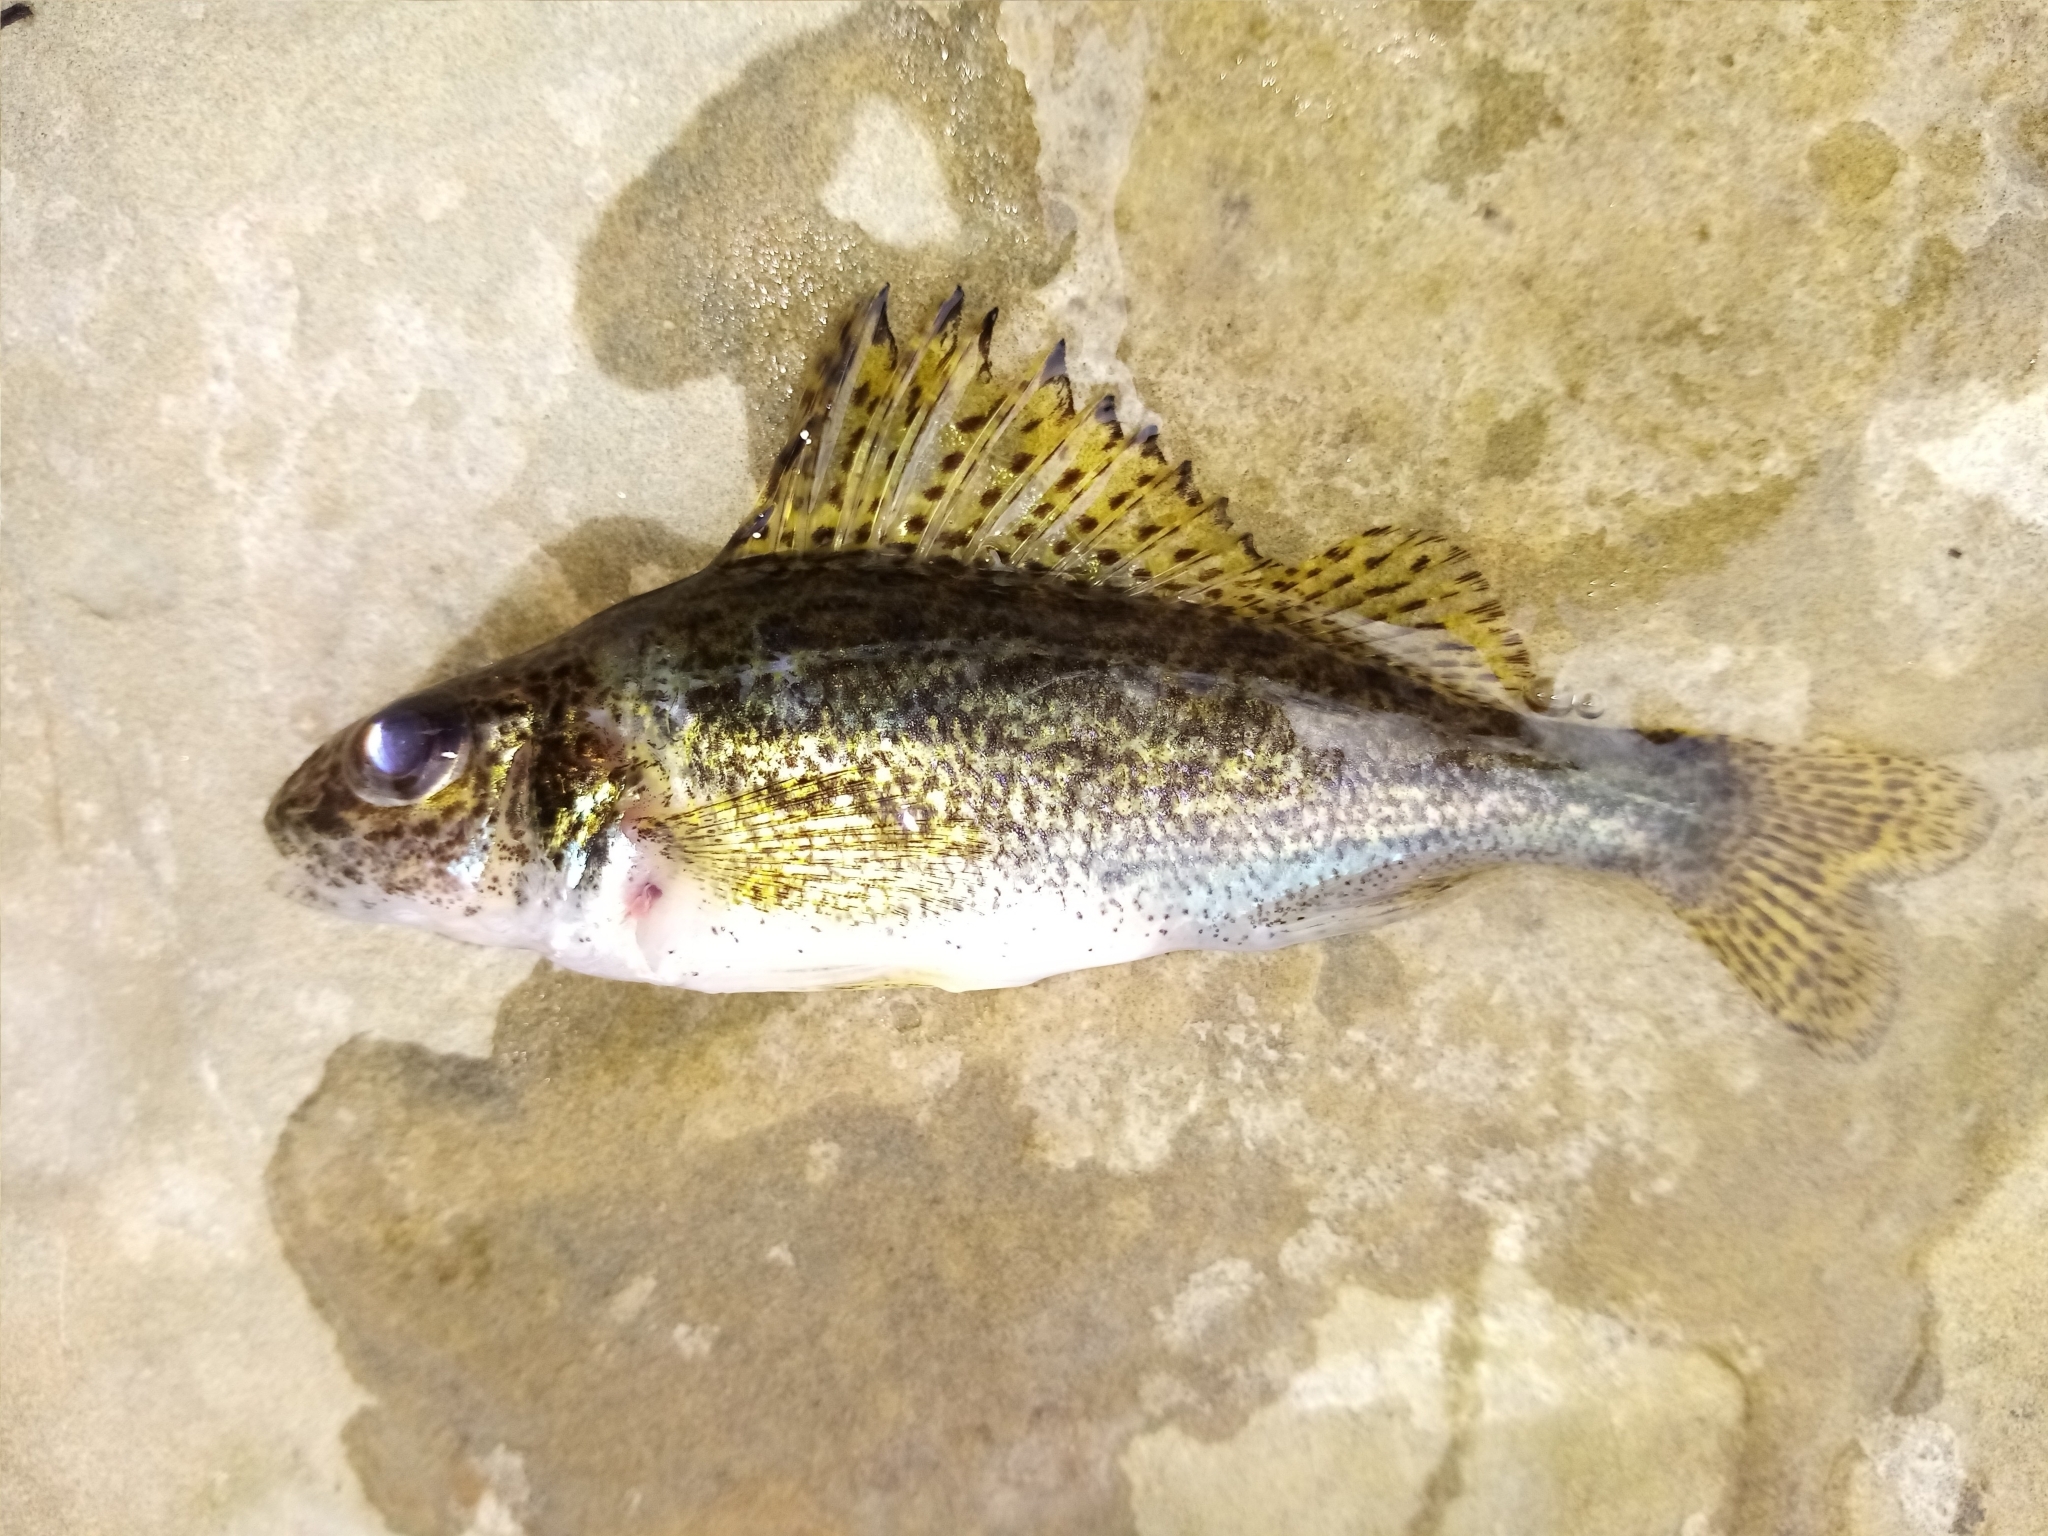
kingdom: Animalia
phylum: Chordata
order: Perciformes
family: Percidae
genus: Gymnocephalus
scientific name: Gymnocephalus cernua
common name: Ruffe
